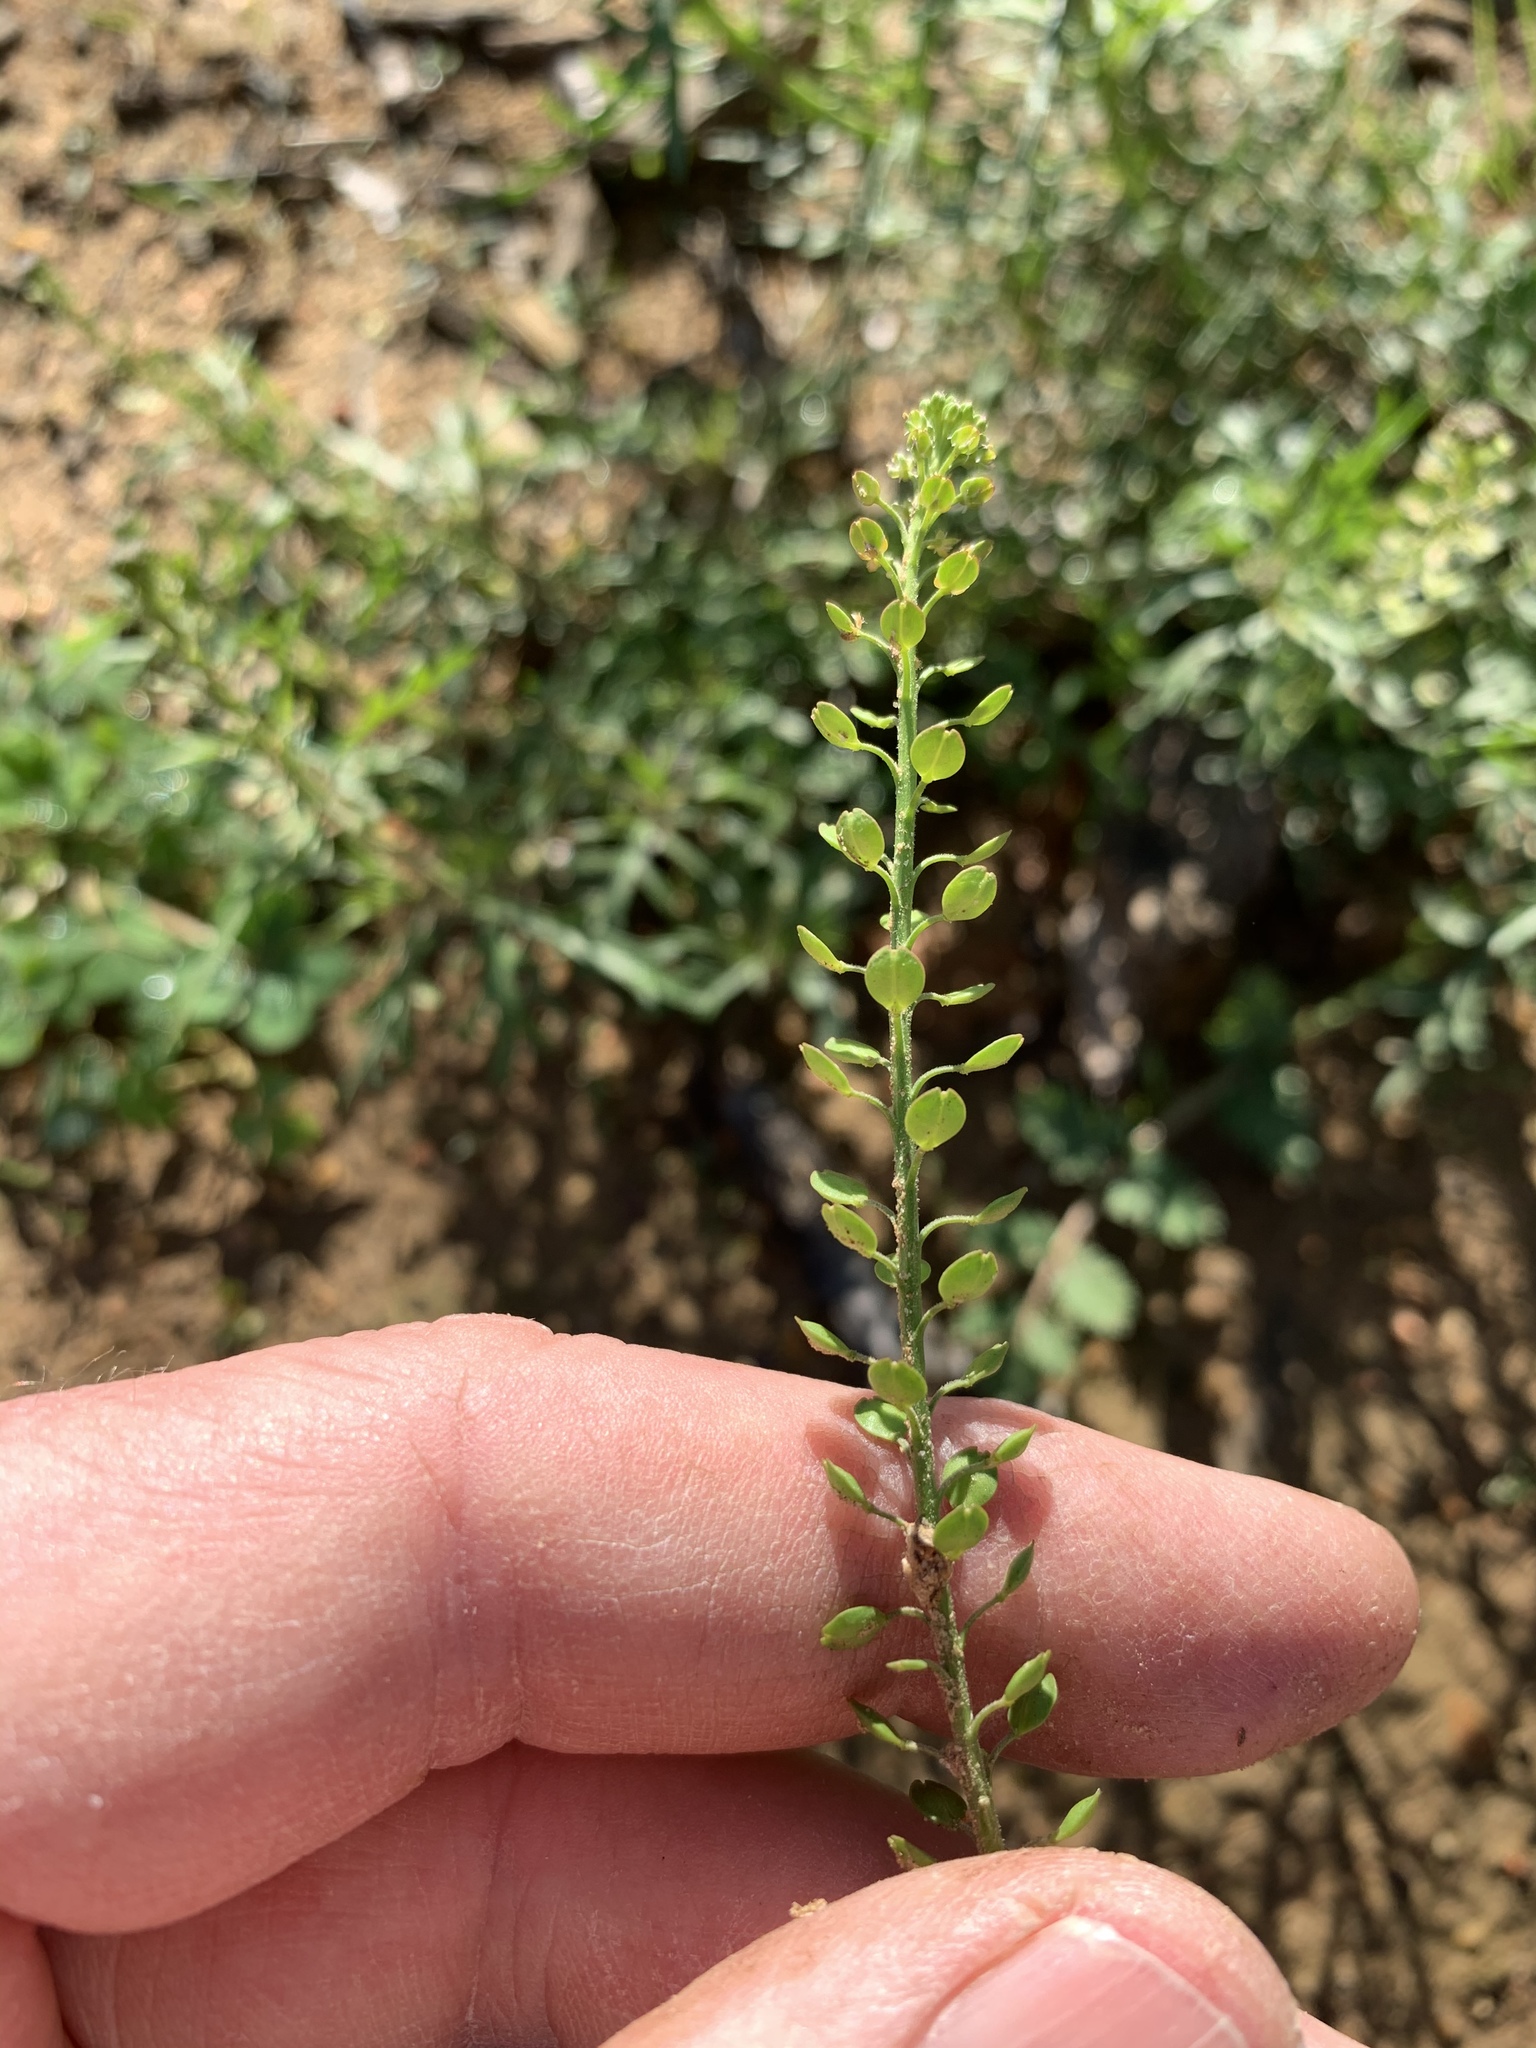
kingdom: Plantae
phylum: Tracheophyta
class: Magnoliopsida
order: Brassicales
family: Brassicaceae
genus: Lepidium
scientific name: Lepidium bonariense
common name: Argentine pepperwort
